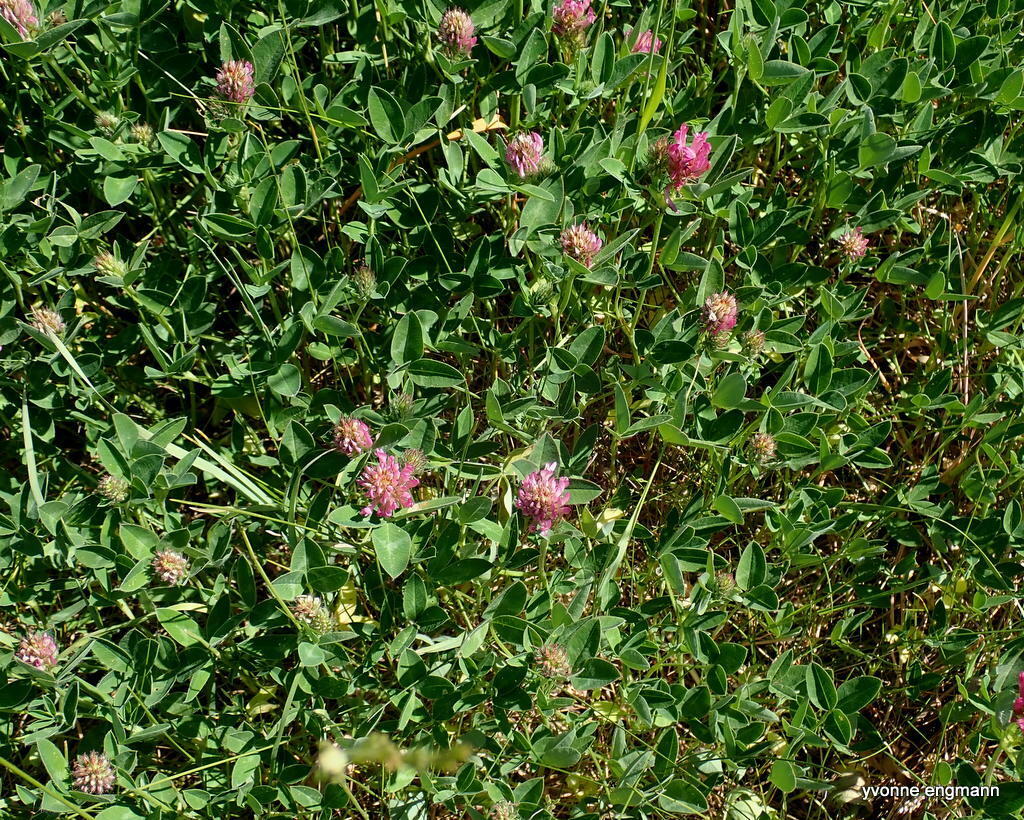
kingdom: Plantae
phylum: Tracheophyta
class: Magnoliopsida
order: Fabales
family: Fabaceae
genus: Trifolium
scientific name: Trifolium pratense
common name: Red clover
